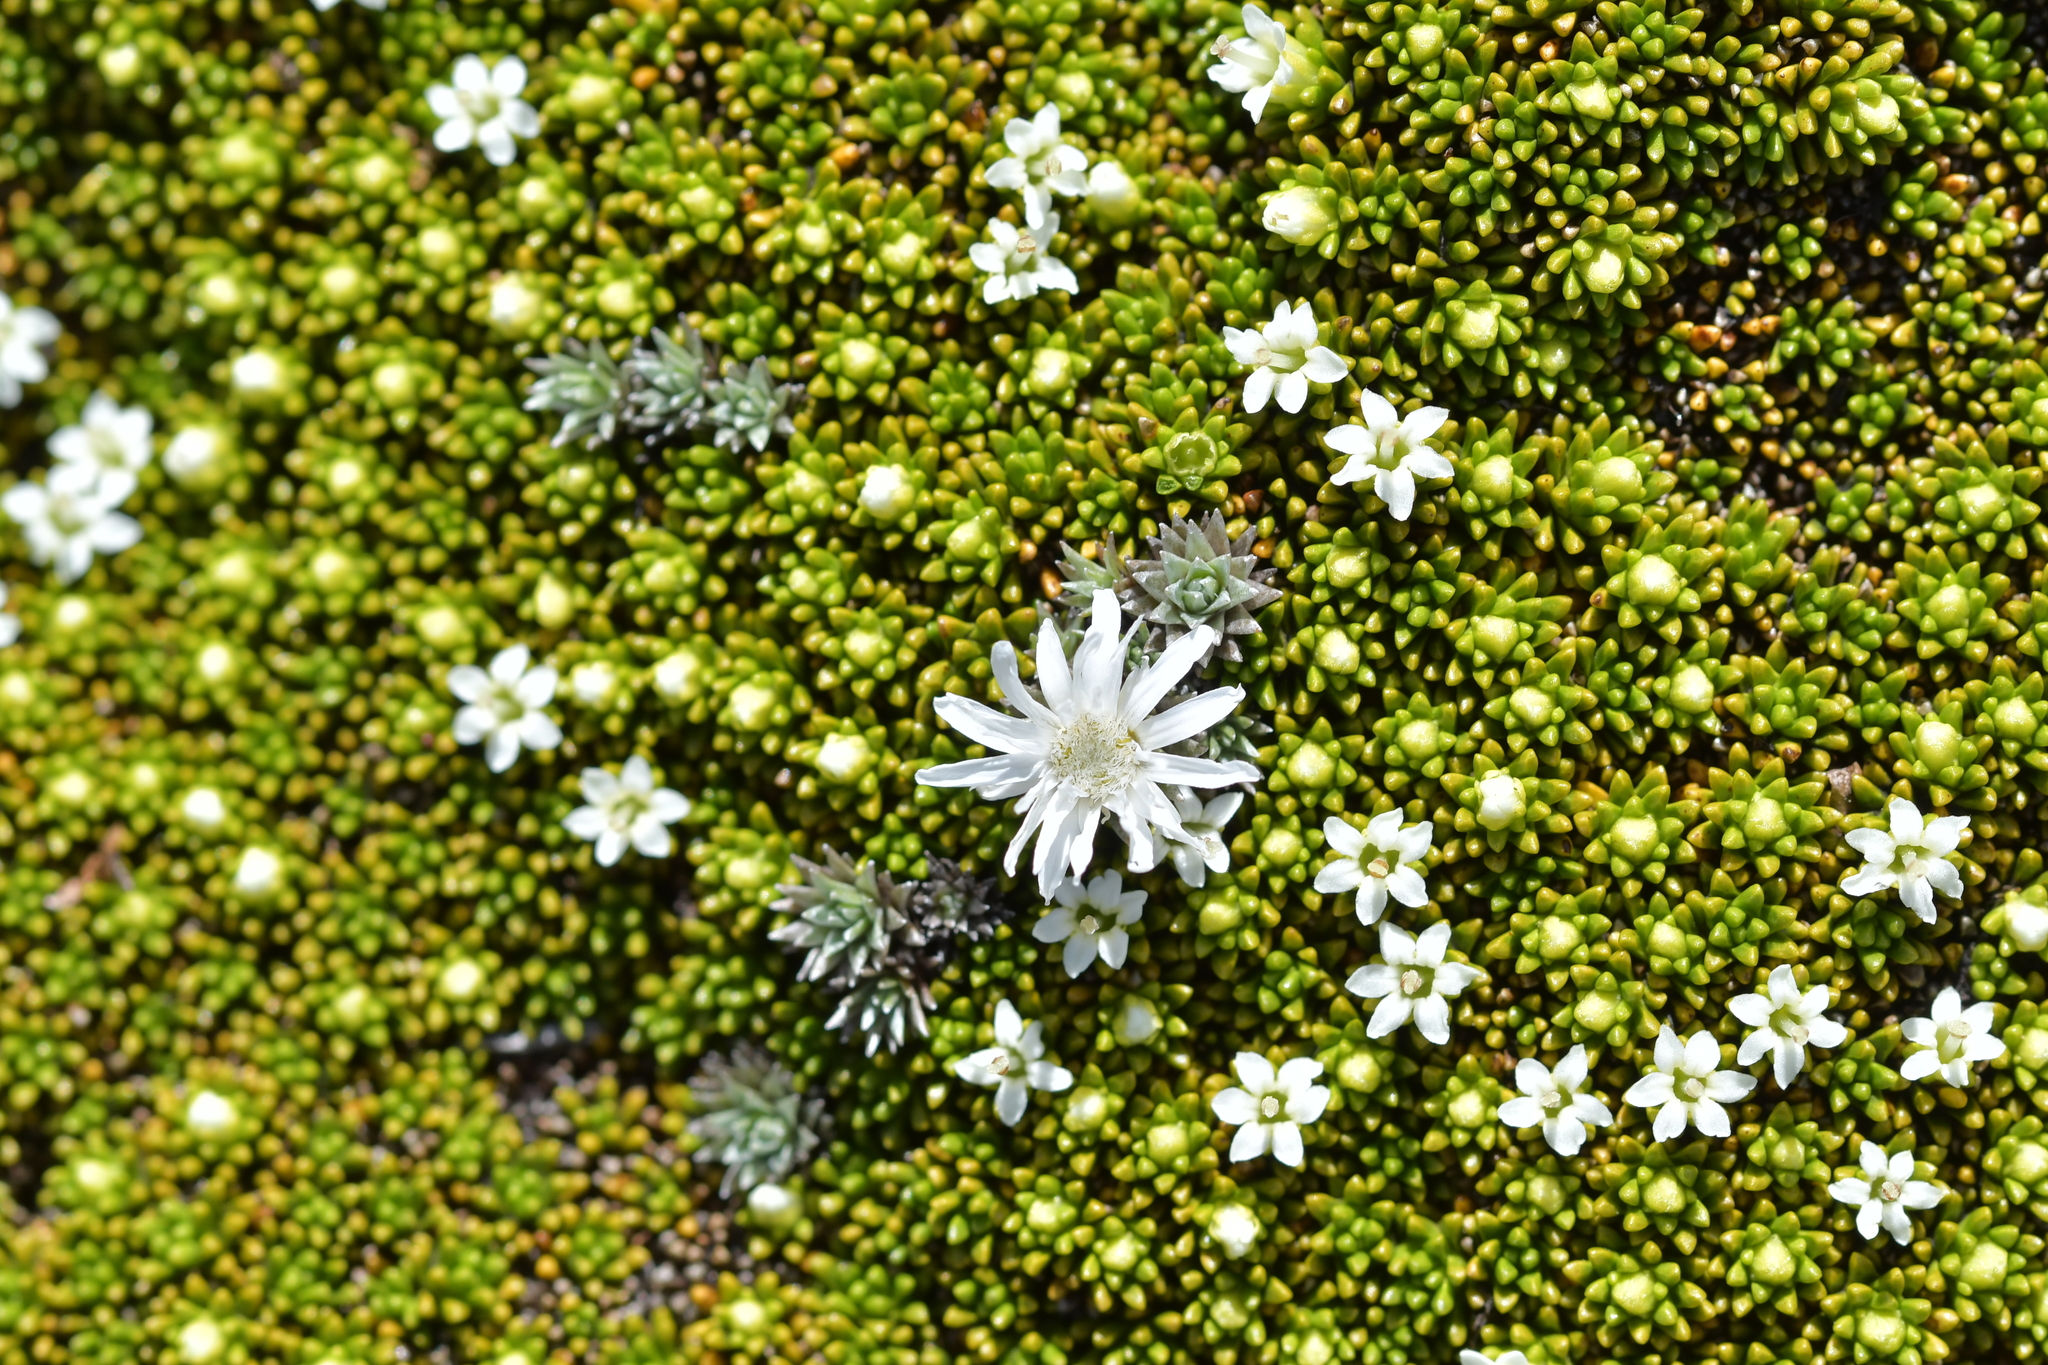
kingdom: Plantae
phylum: Tracheophyta
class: Magnoliopsida
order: Asterales
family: Asteraceae
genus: Raoulia
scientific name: Raoulia grandiflora
